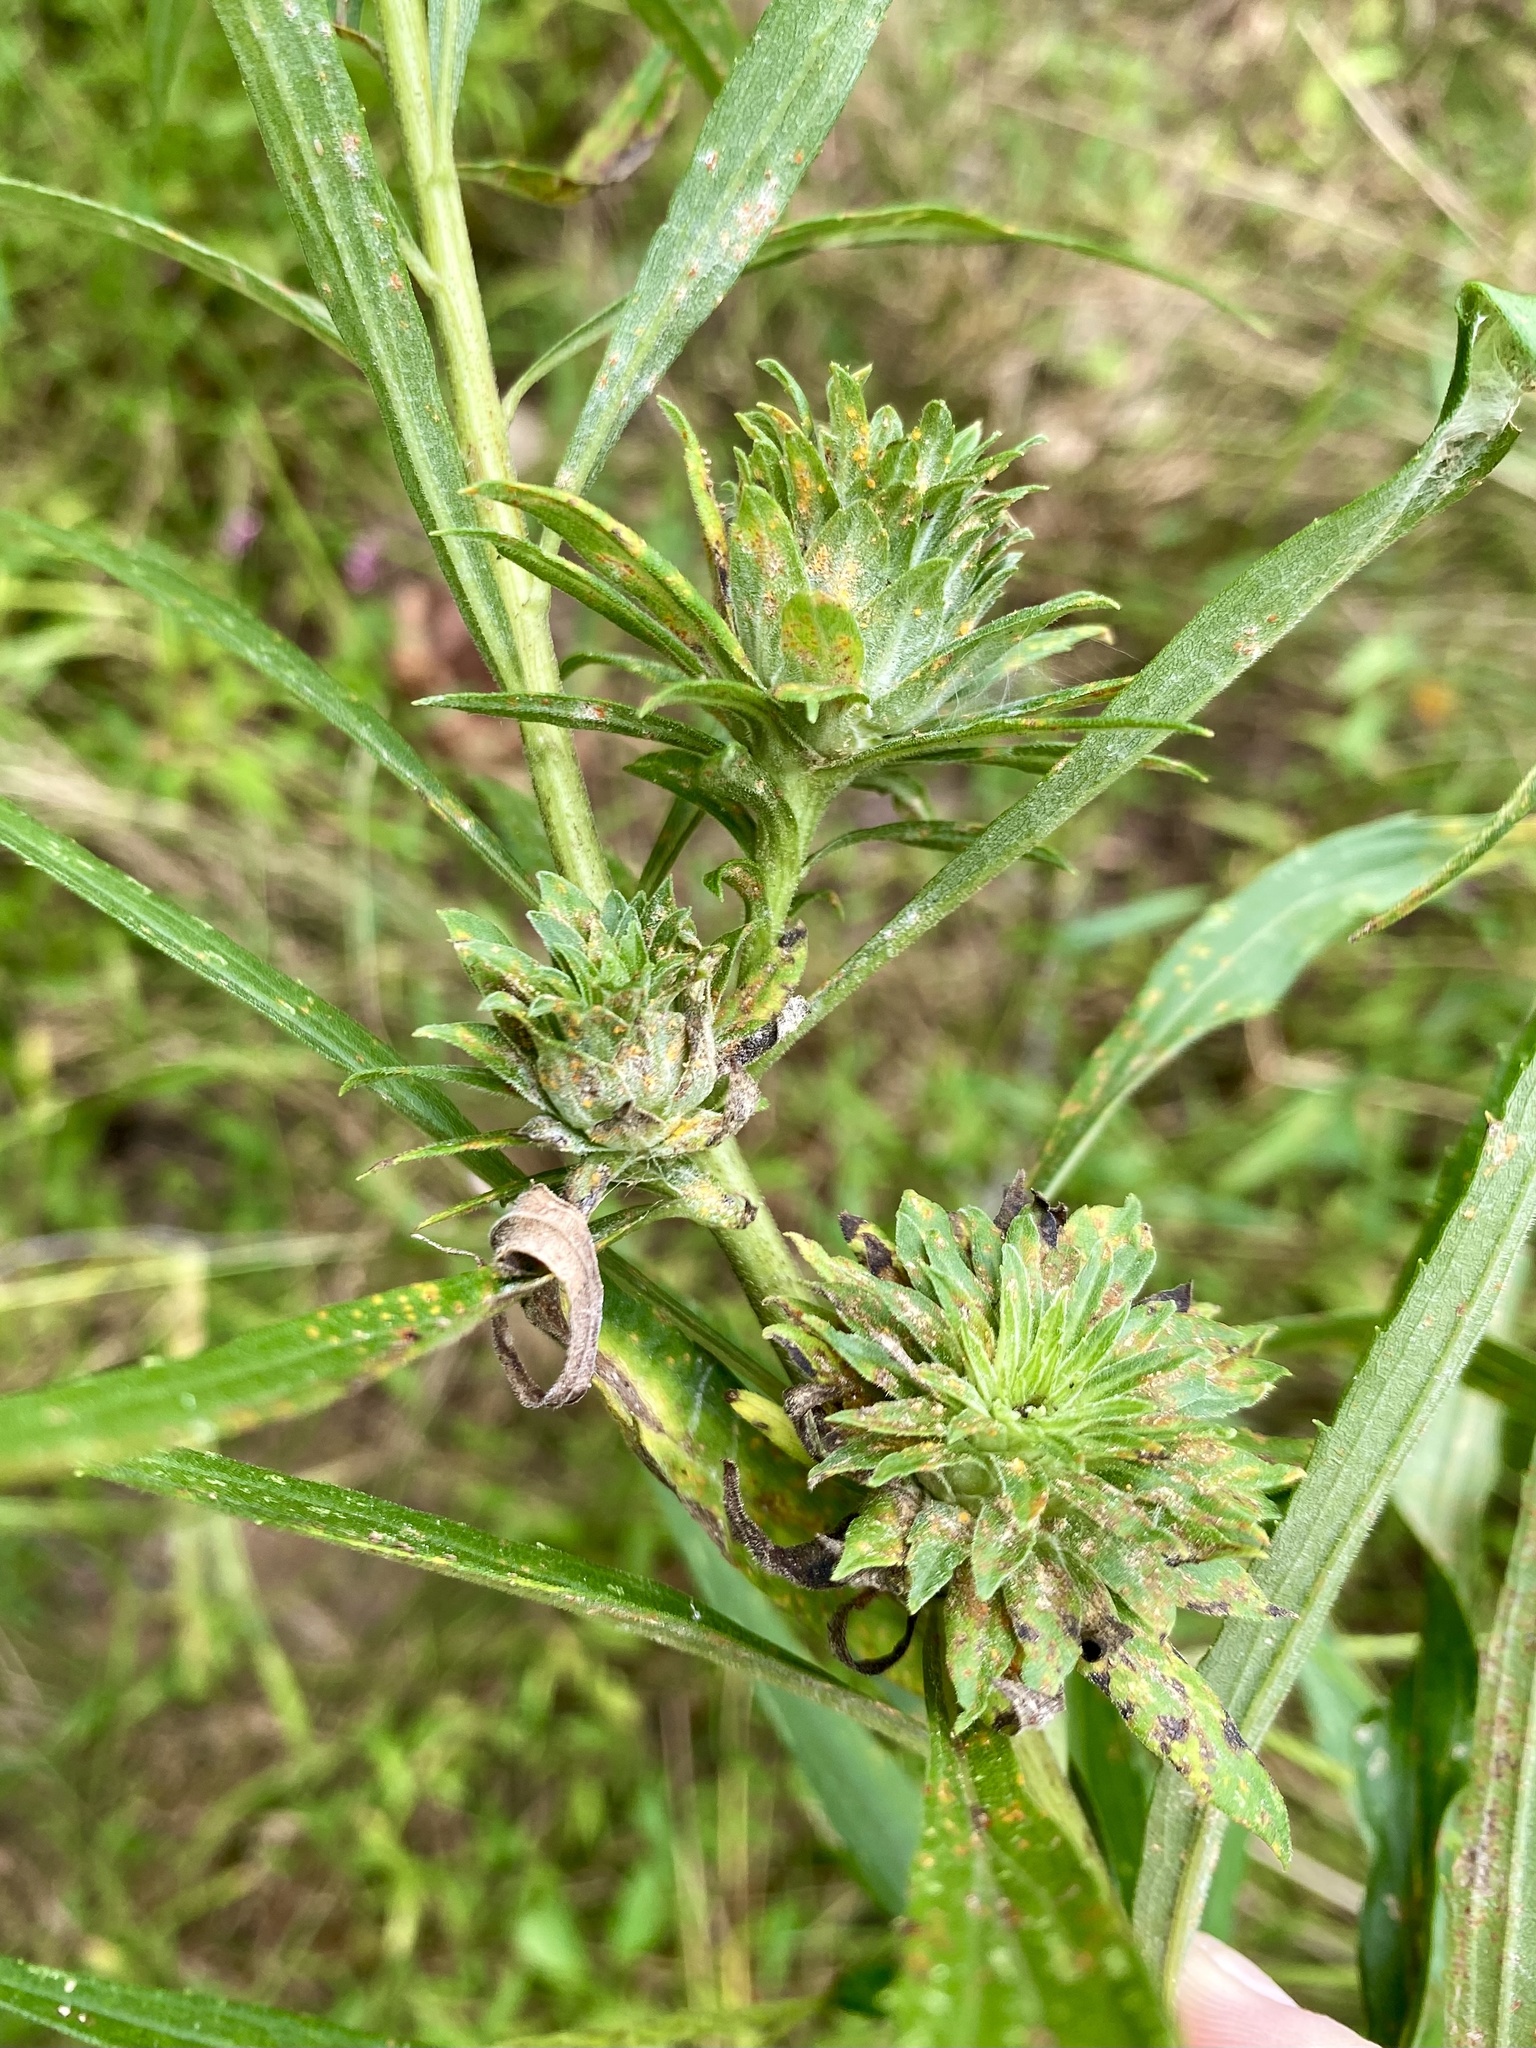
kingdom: Animalia
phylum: Arthropoda
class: Insecta
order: Diptera
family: Tephritidae
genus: Procecidochares
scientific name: Procecidochares atra
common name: Goldenrod brussels sprout gall fly
